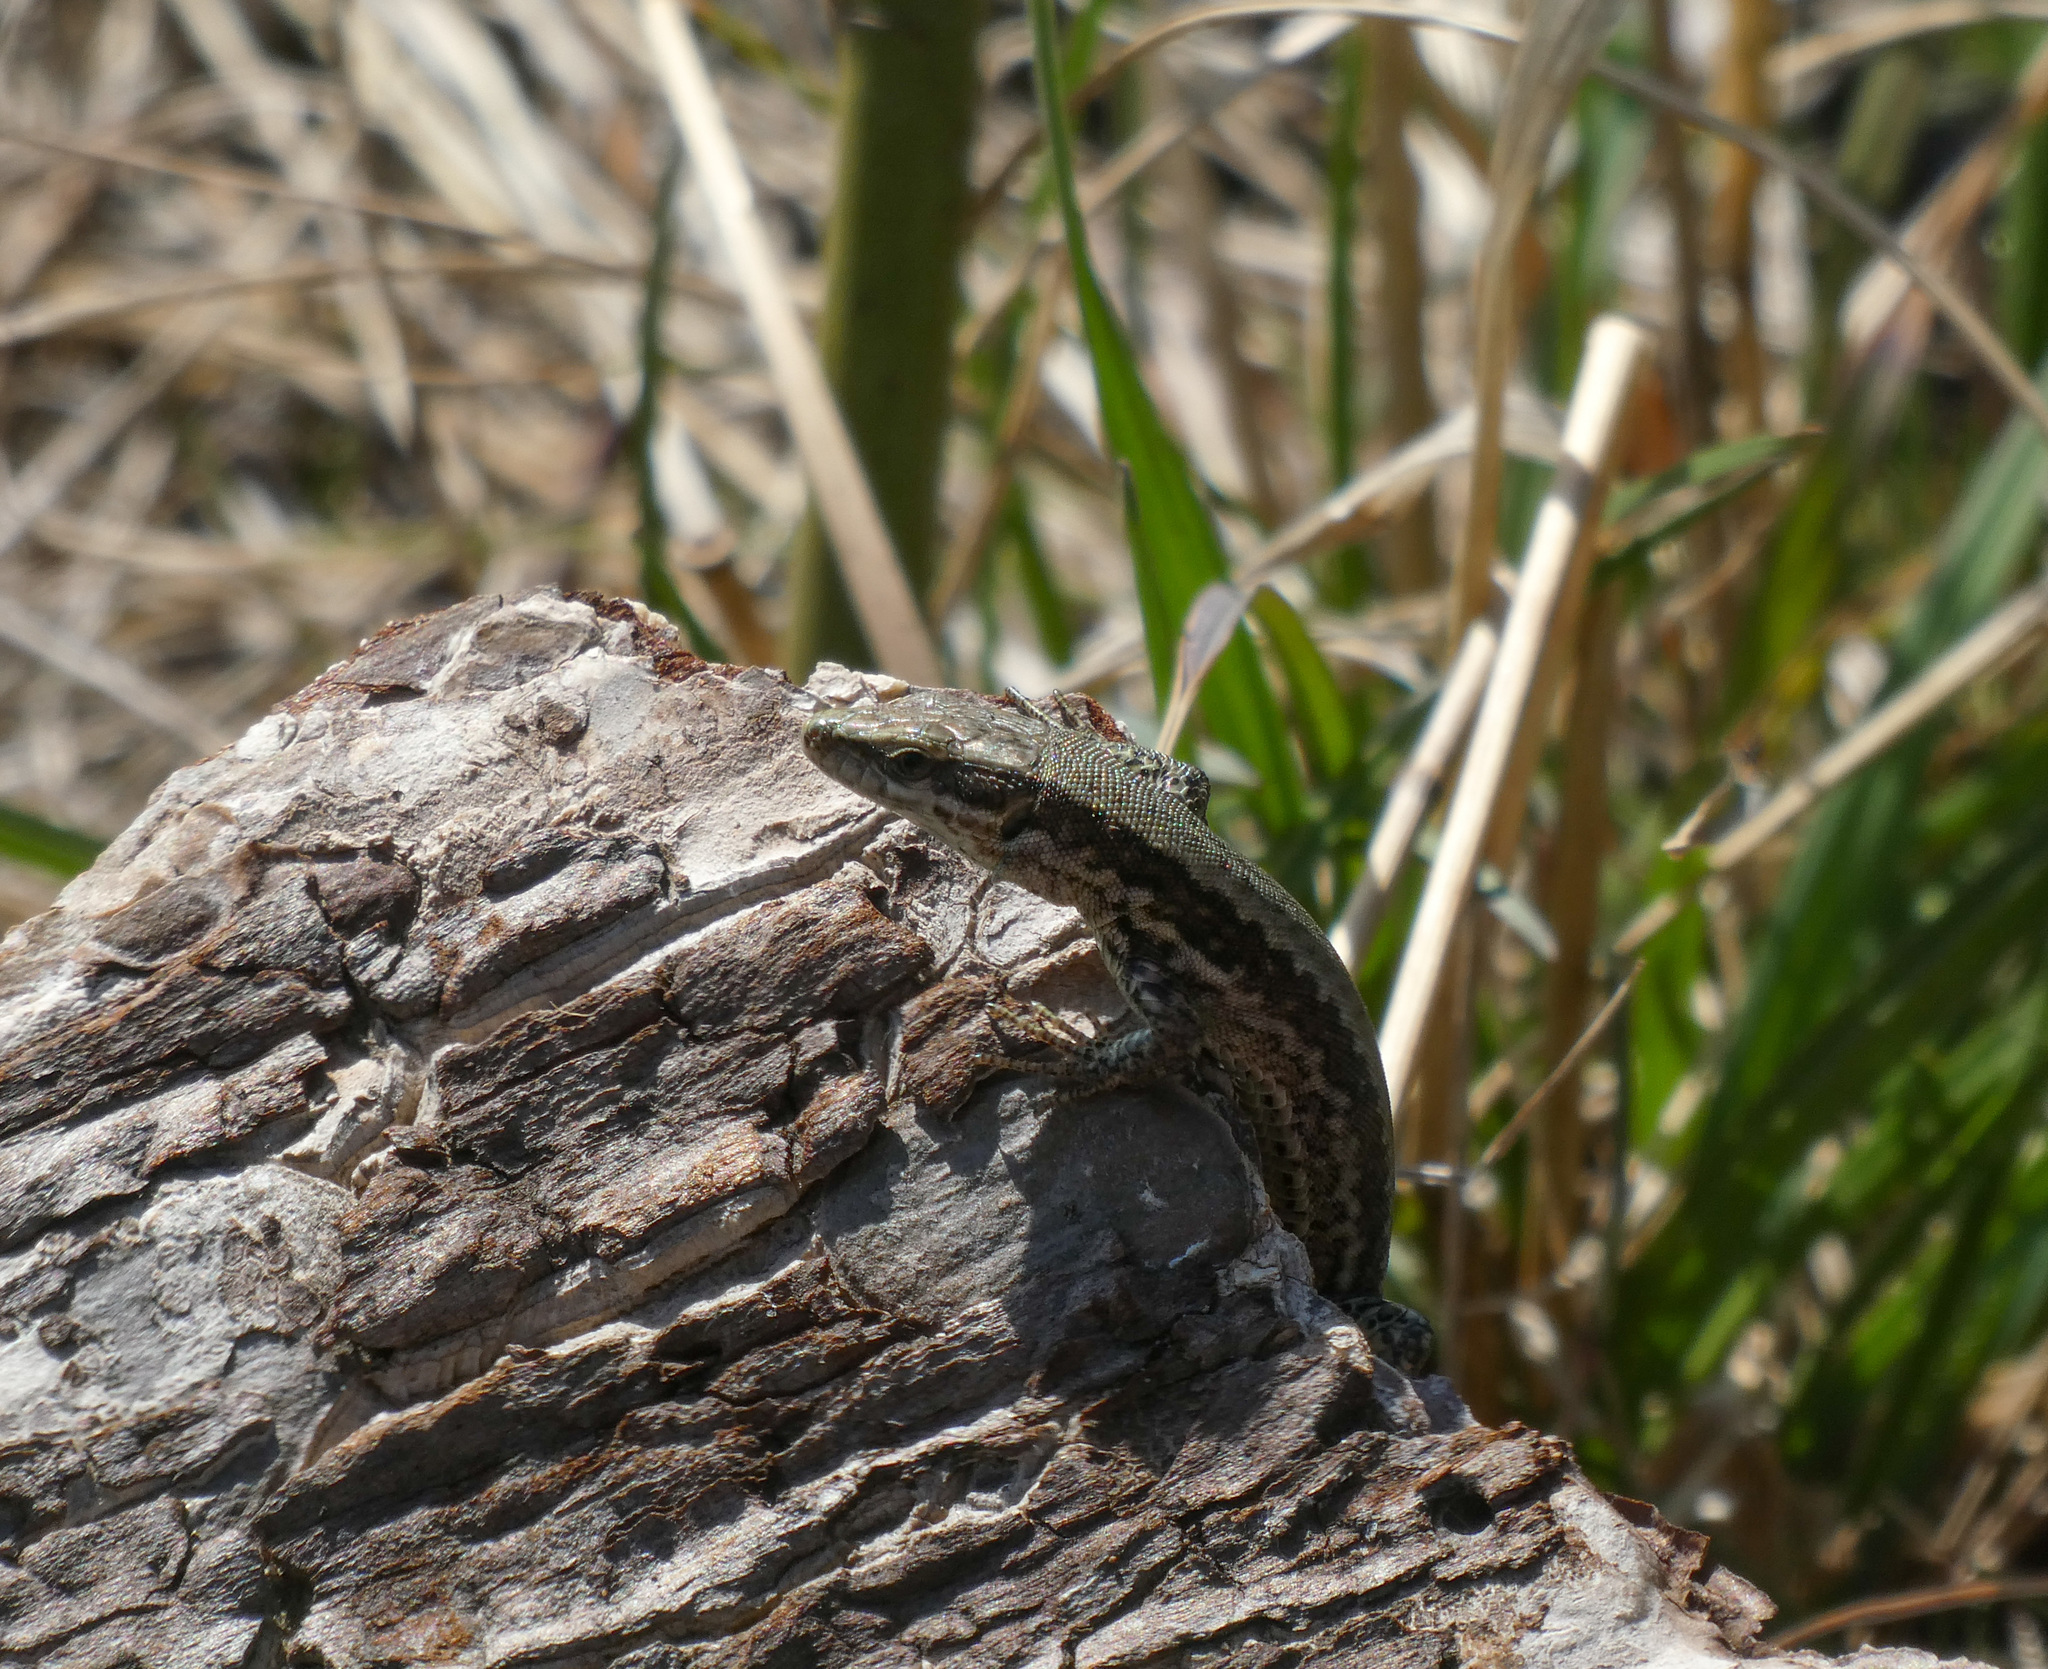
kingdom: Animalia
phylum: Chordata
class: Squamata
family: Lacertidae
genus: Podarcis
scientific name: Podarcis muralis
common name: Common wall lizard
